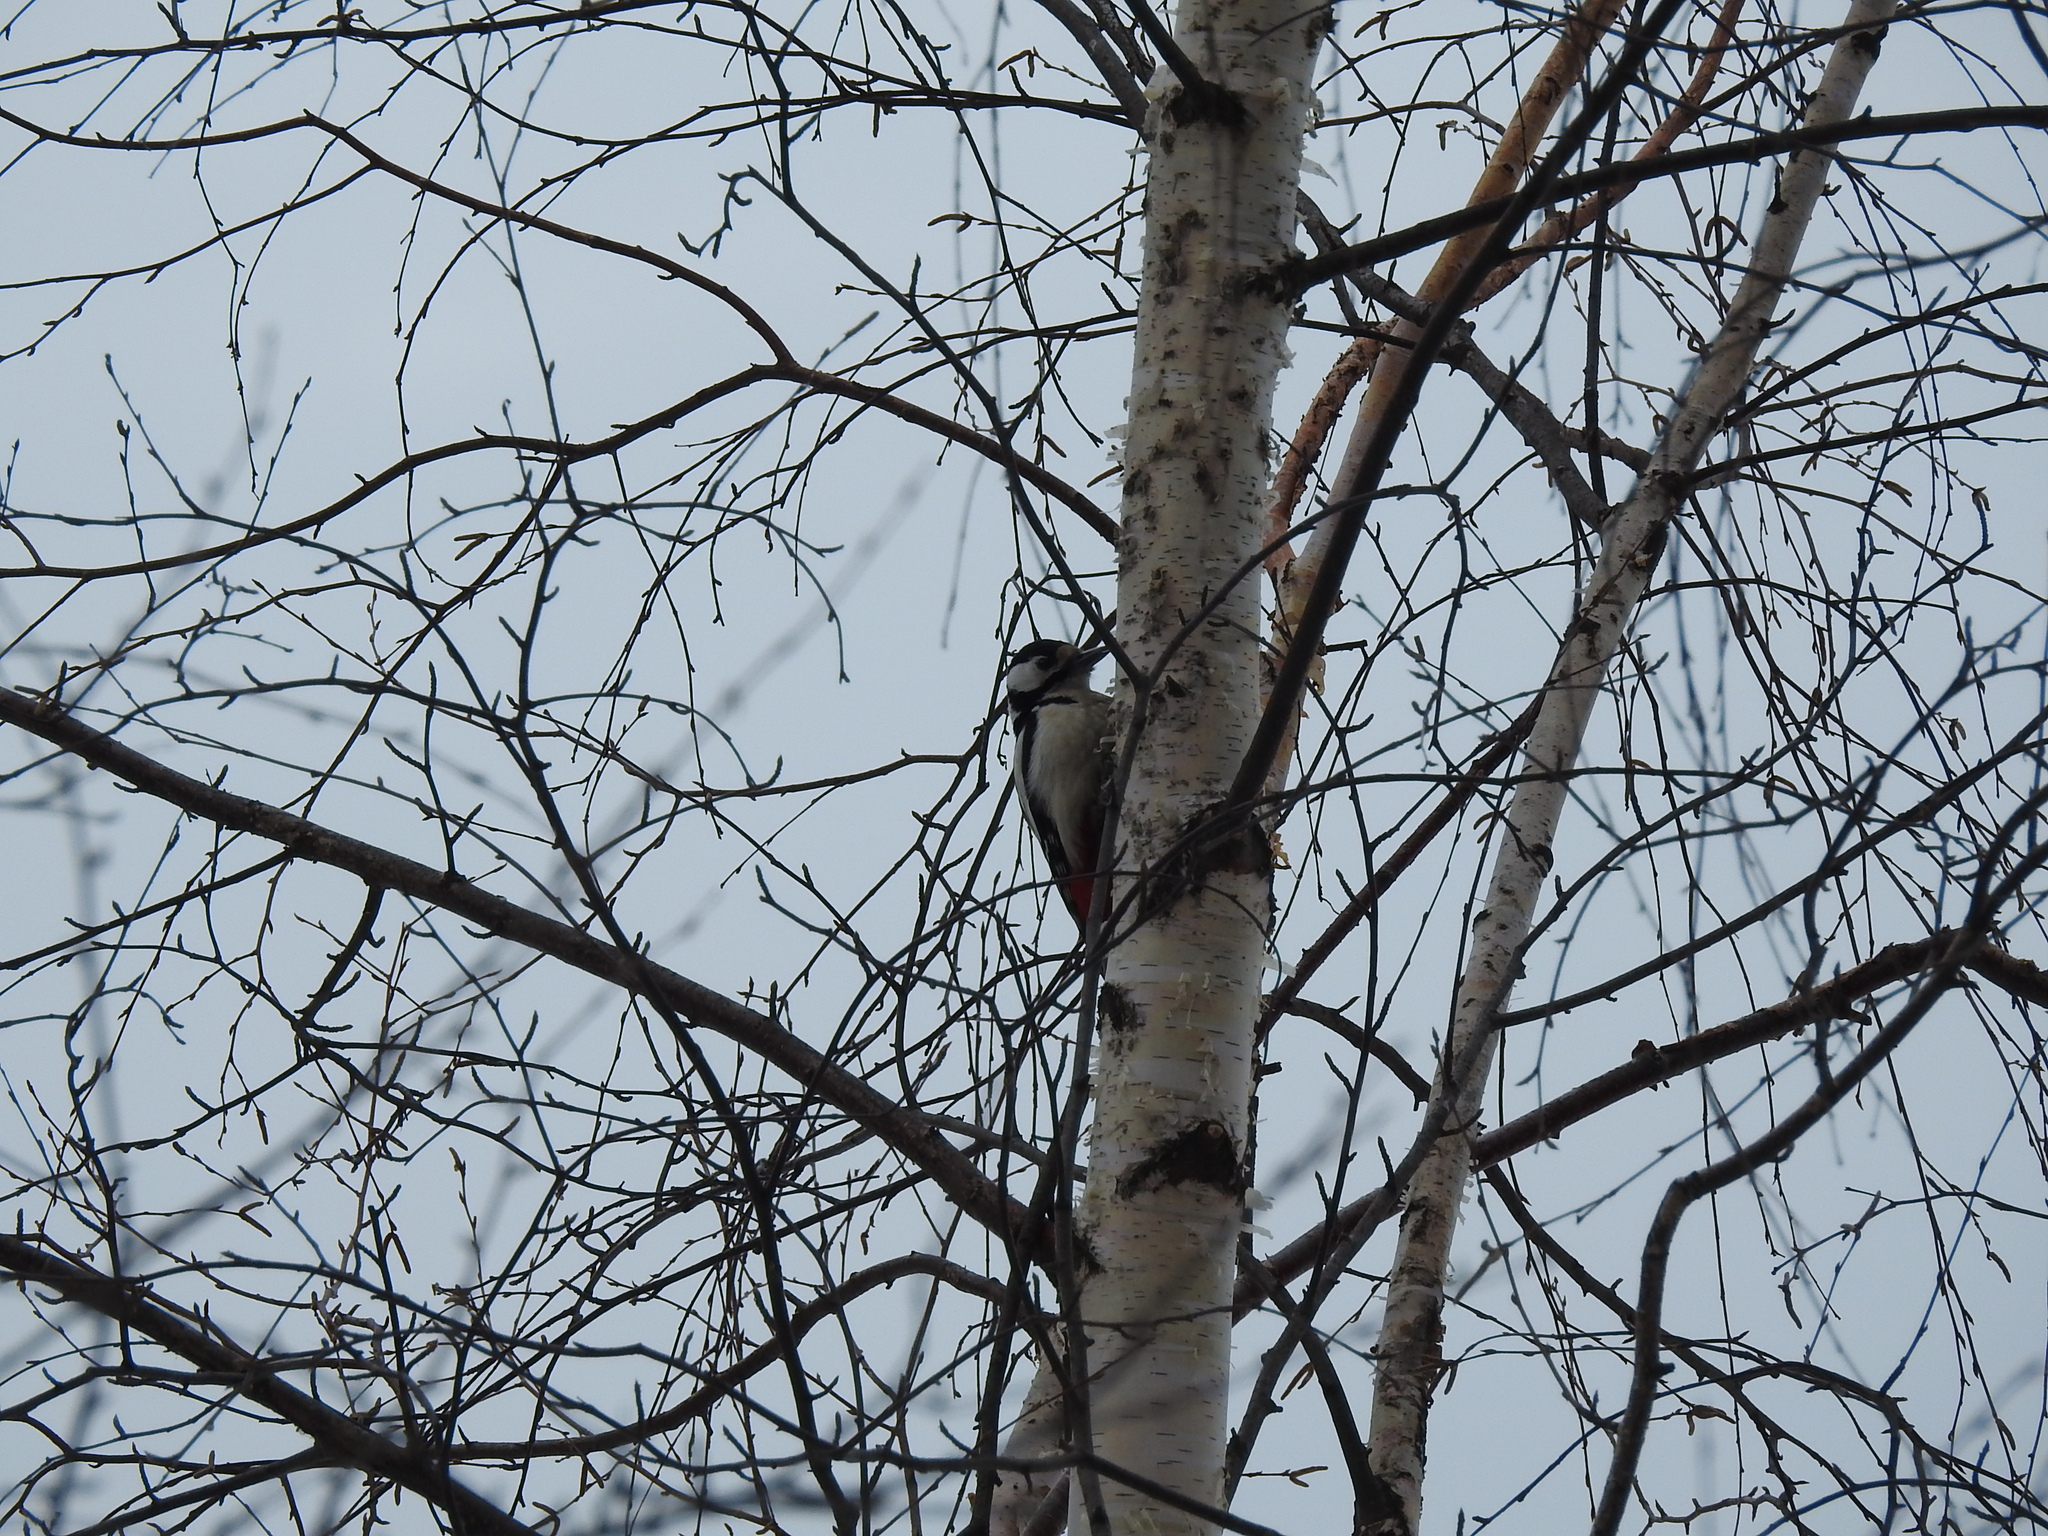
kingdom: Animalia
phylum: Chordata
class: Aves
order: Piciformes
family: Picidae
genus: Dendrocopos
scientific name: Dendrocopos major
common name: Great spotted woodpecker
